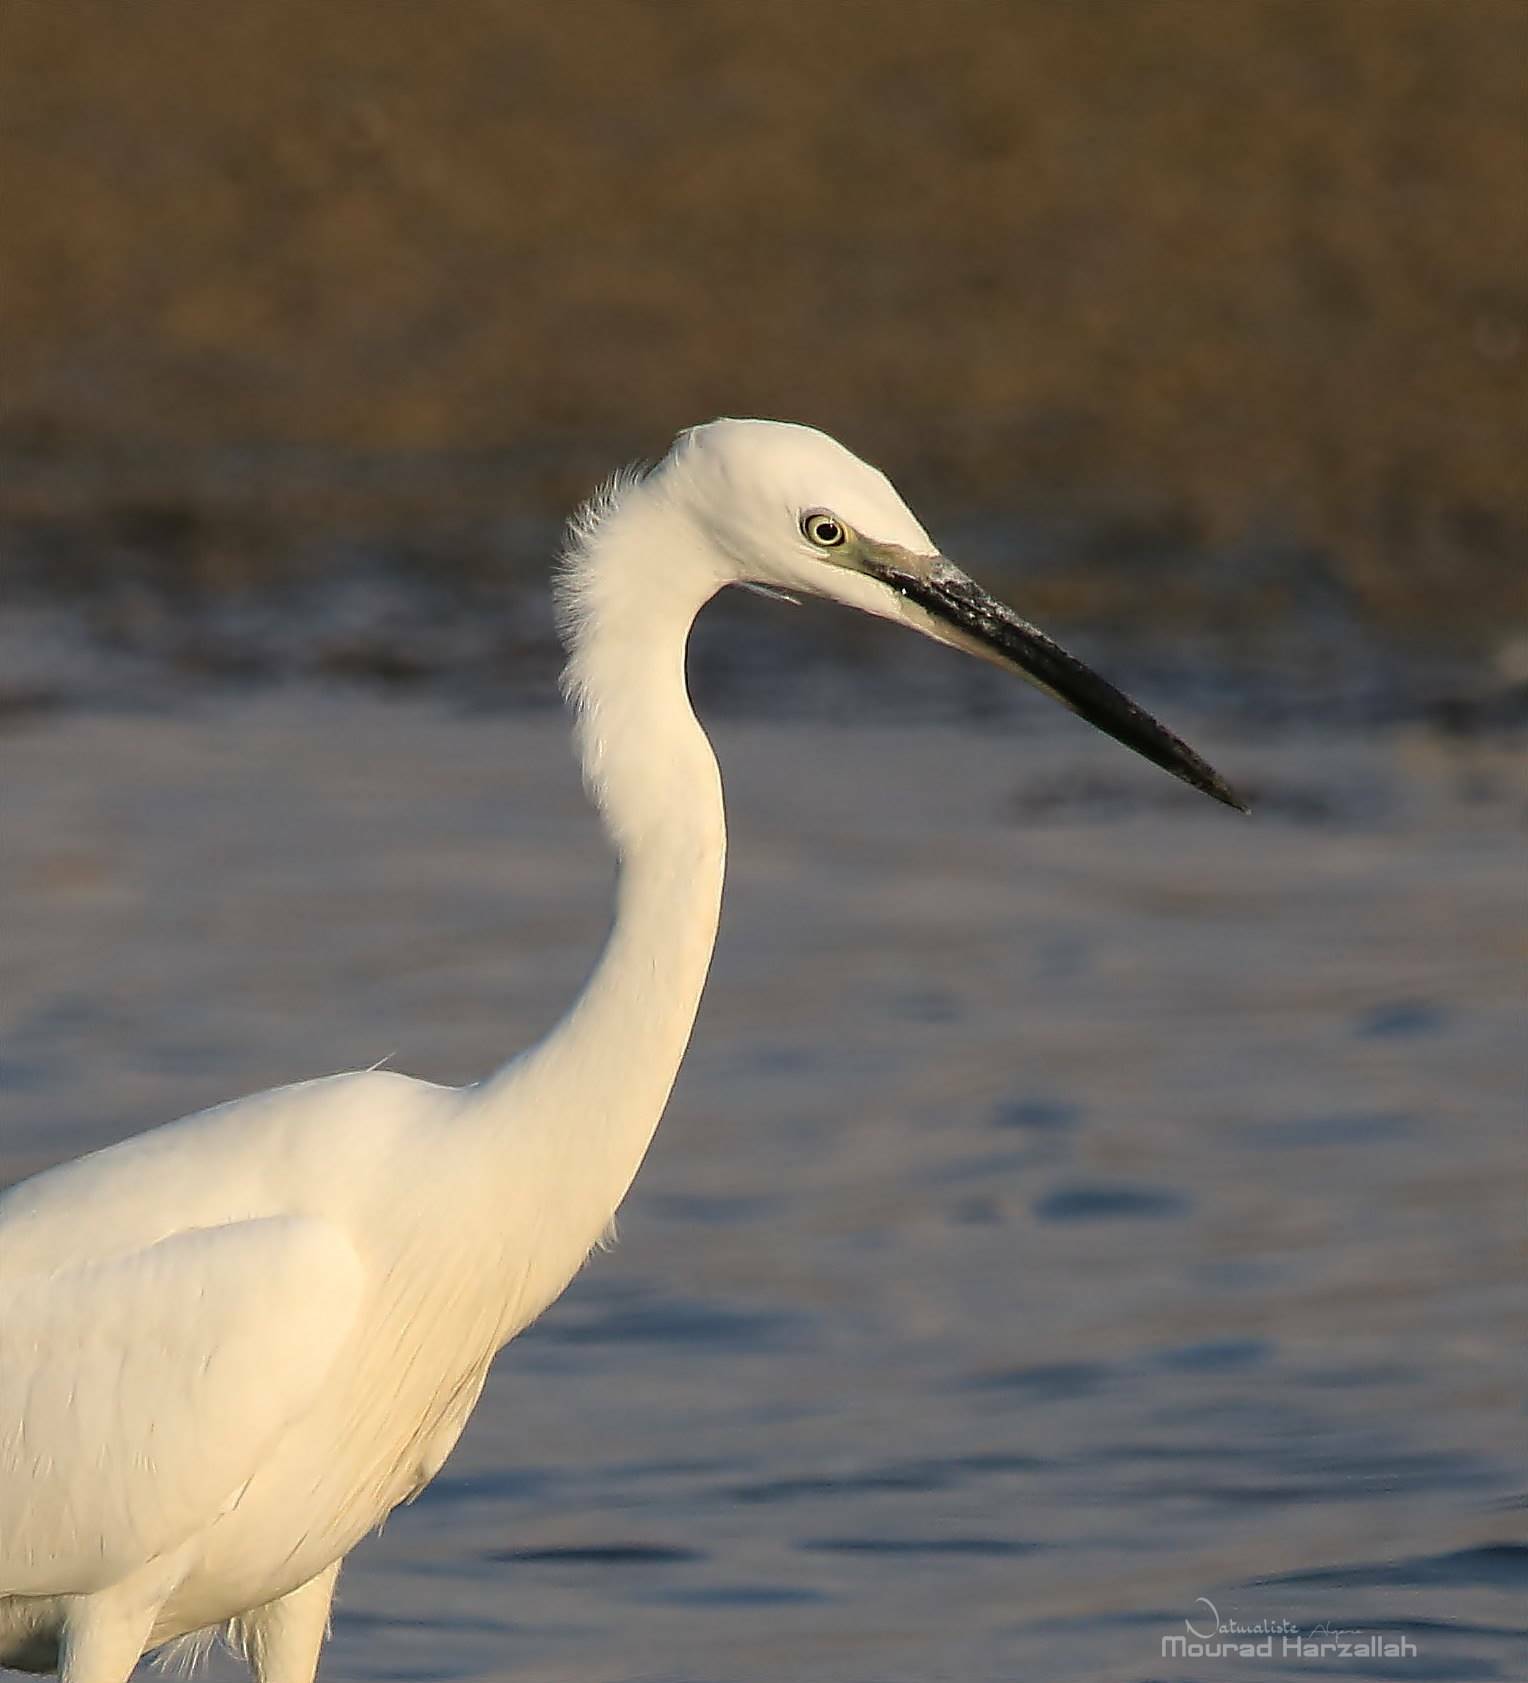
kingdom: Animalia
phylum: Chordata
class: Aves
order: Pelecaniformes
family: Ardeidae
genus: Egretta
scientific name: Egretta garzetta
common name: Little egret
